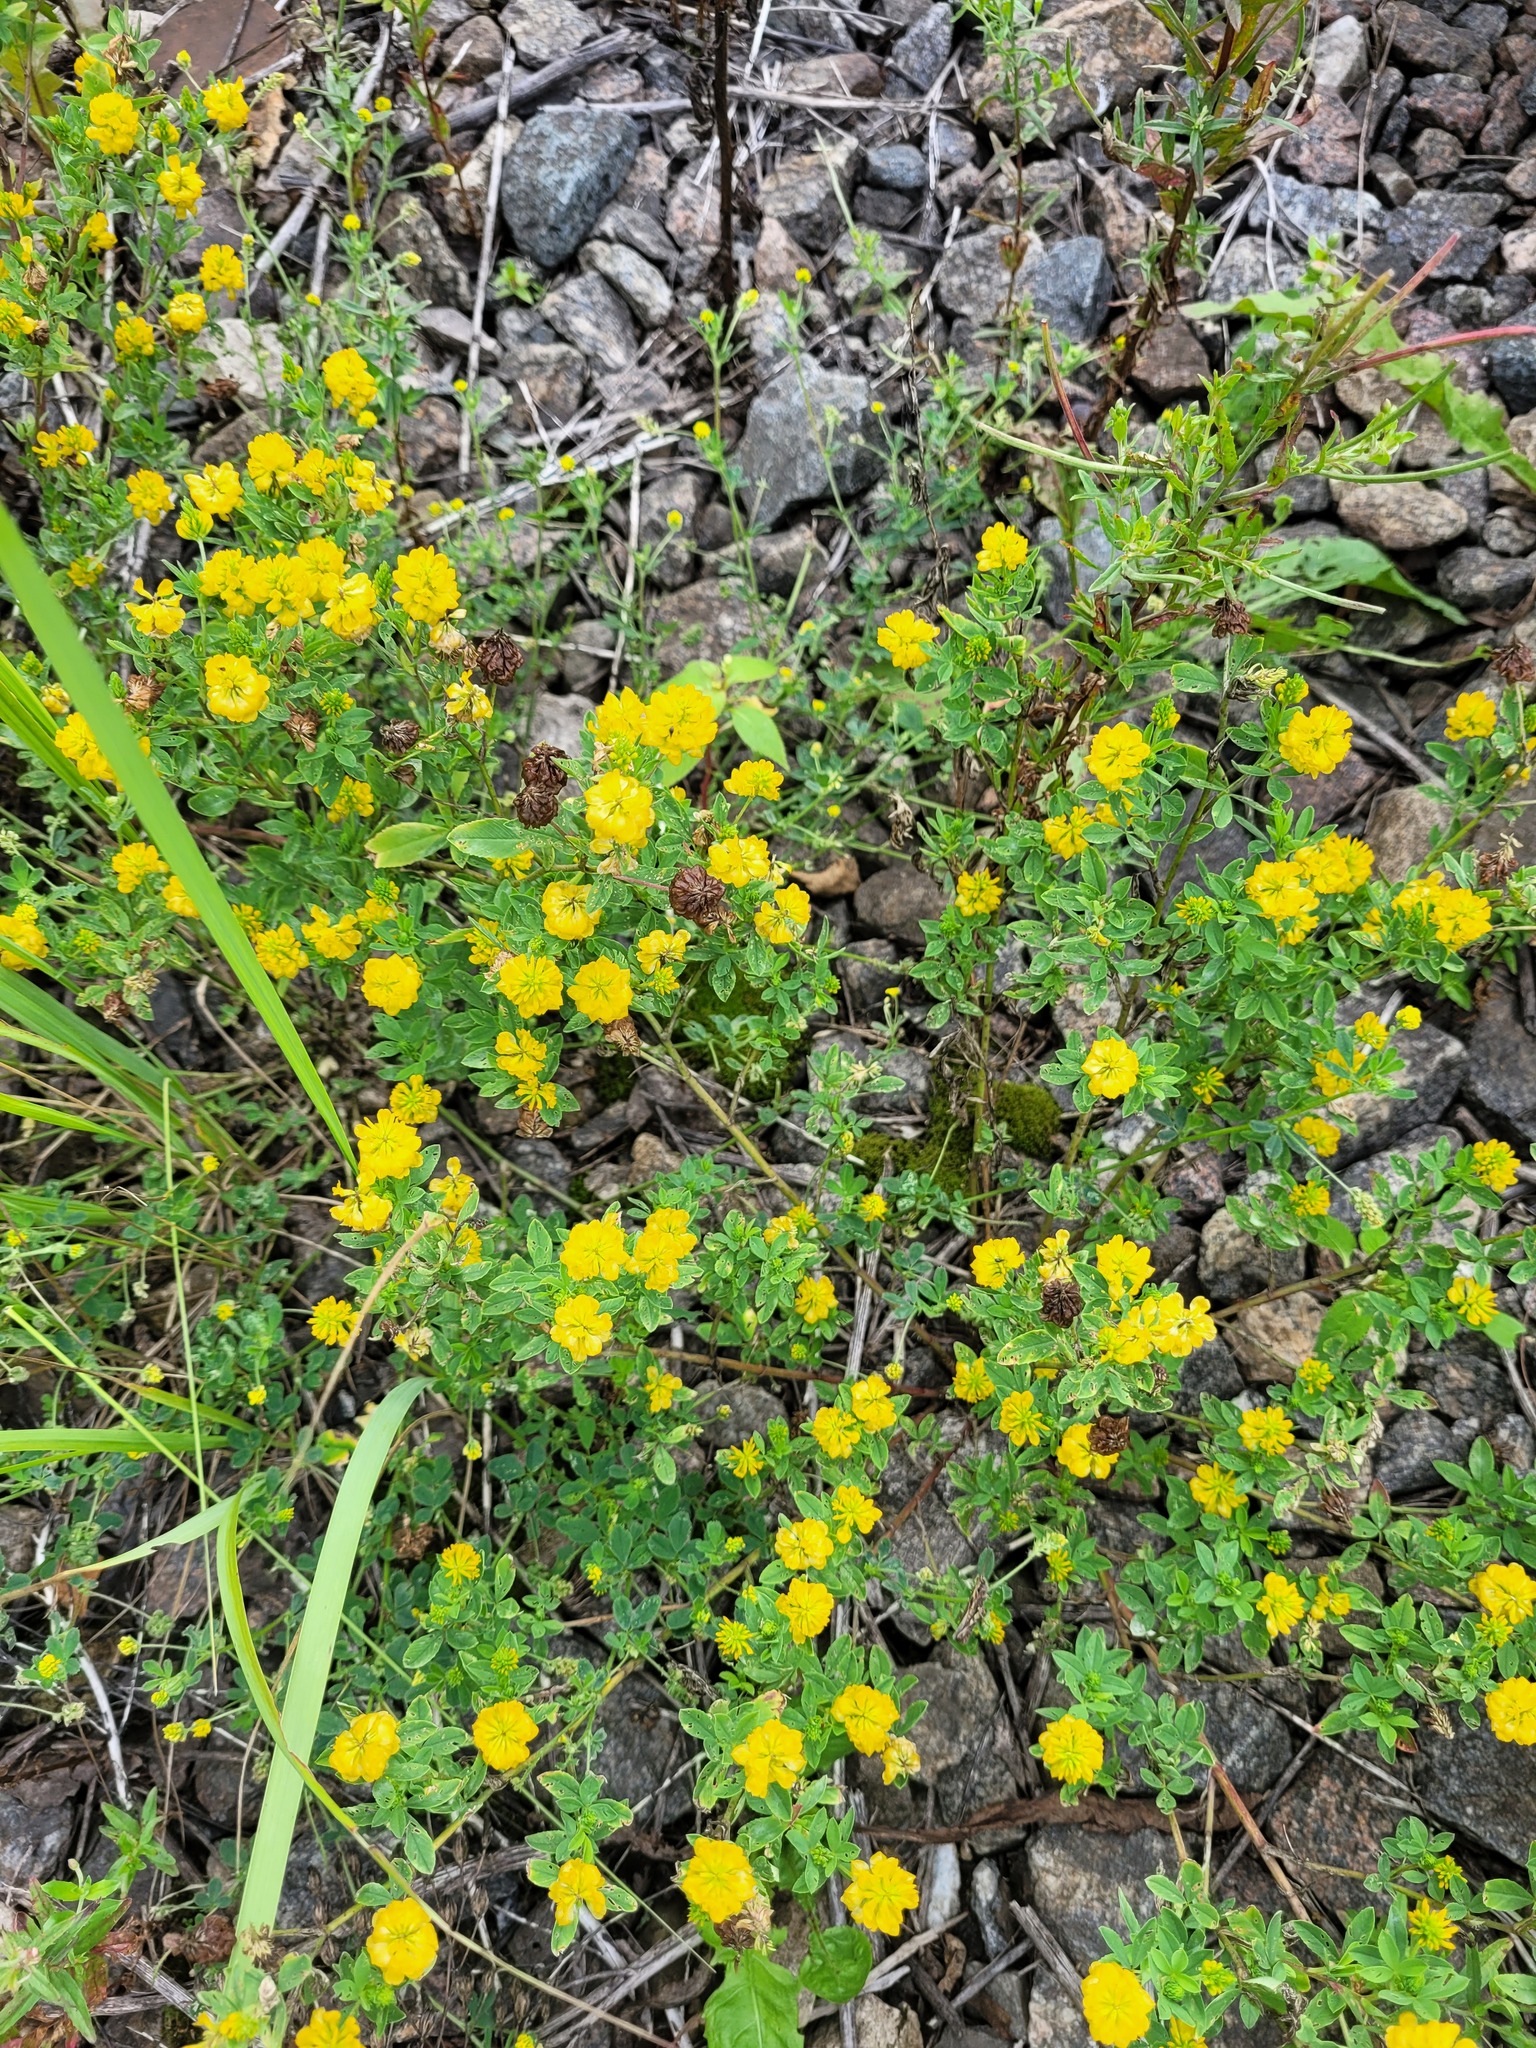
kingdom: Plantae
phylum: Tracheophyta
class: Magnoliopsida
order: Fabales
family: Fabaceae
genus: Trifolium
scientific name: Trifolium aureum
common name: Golden clover
